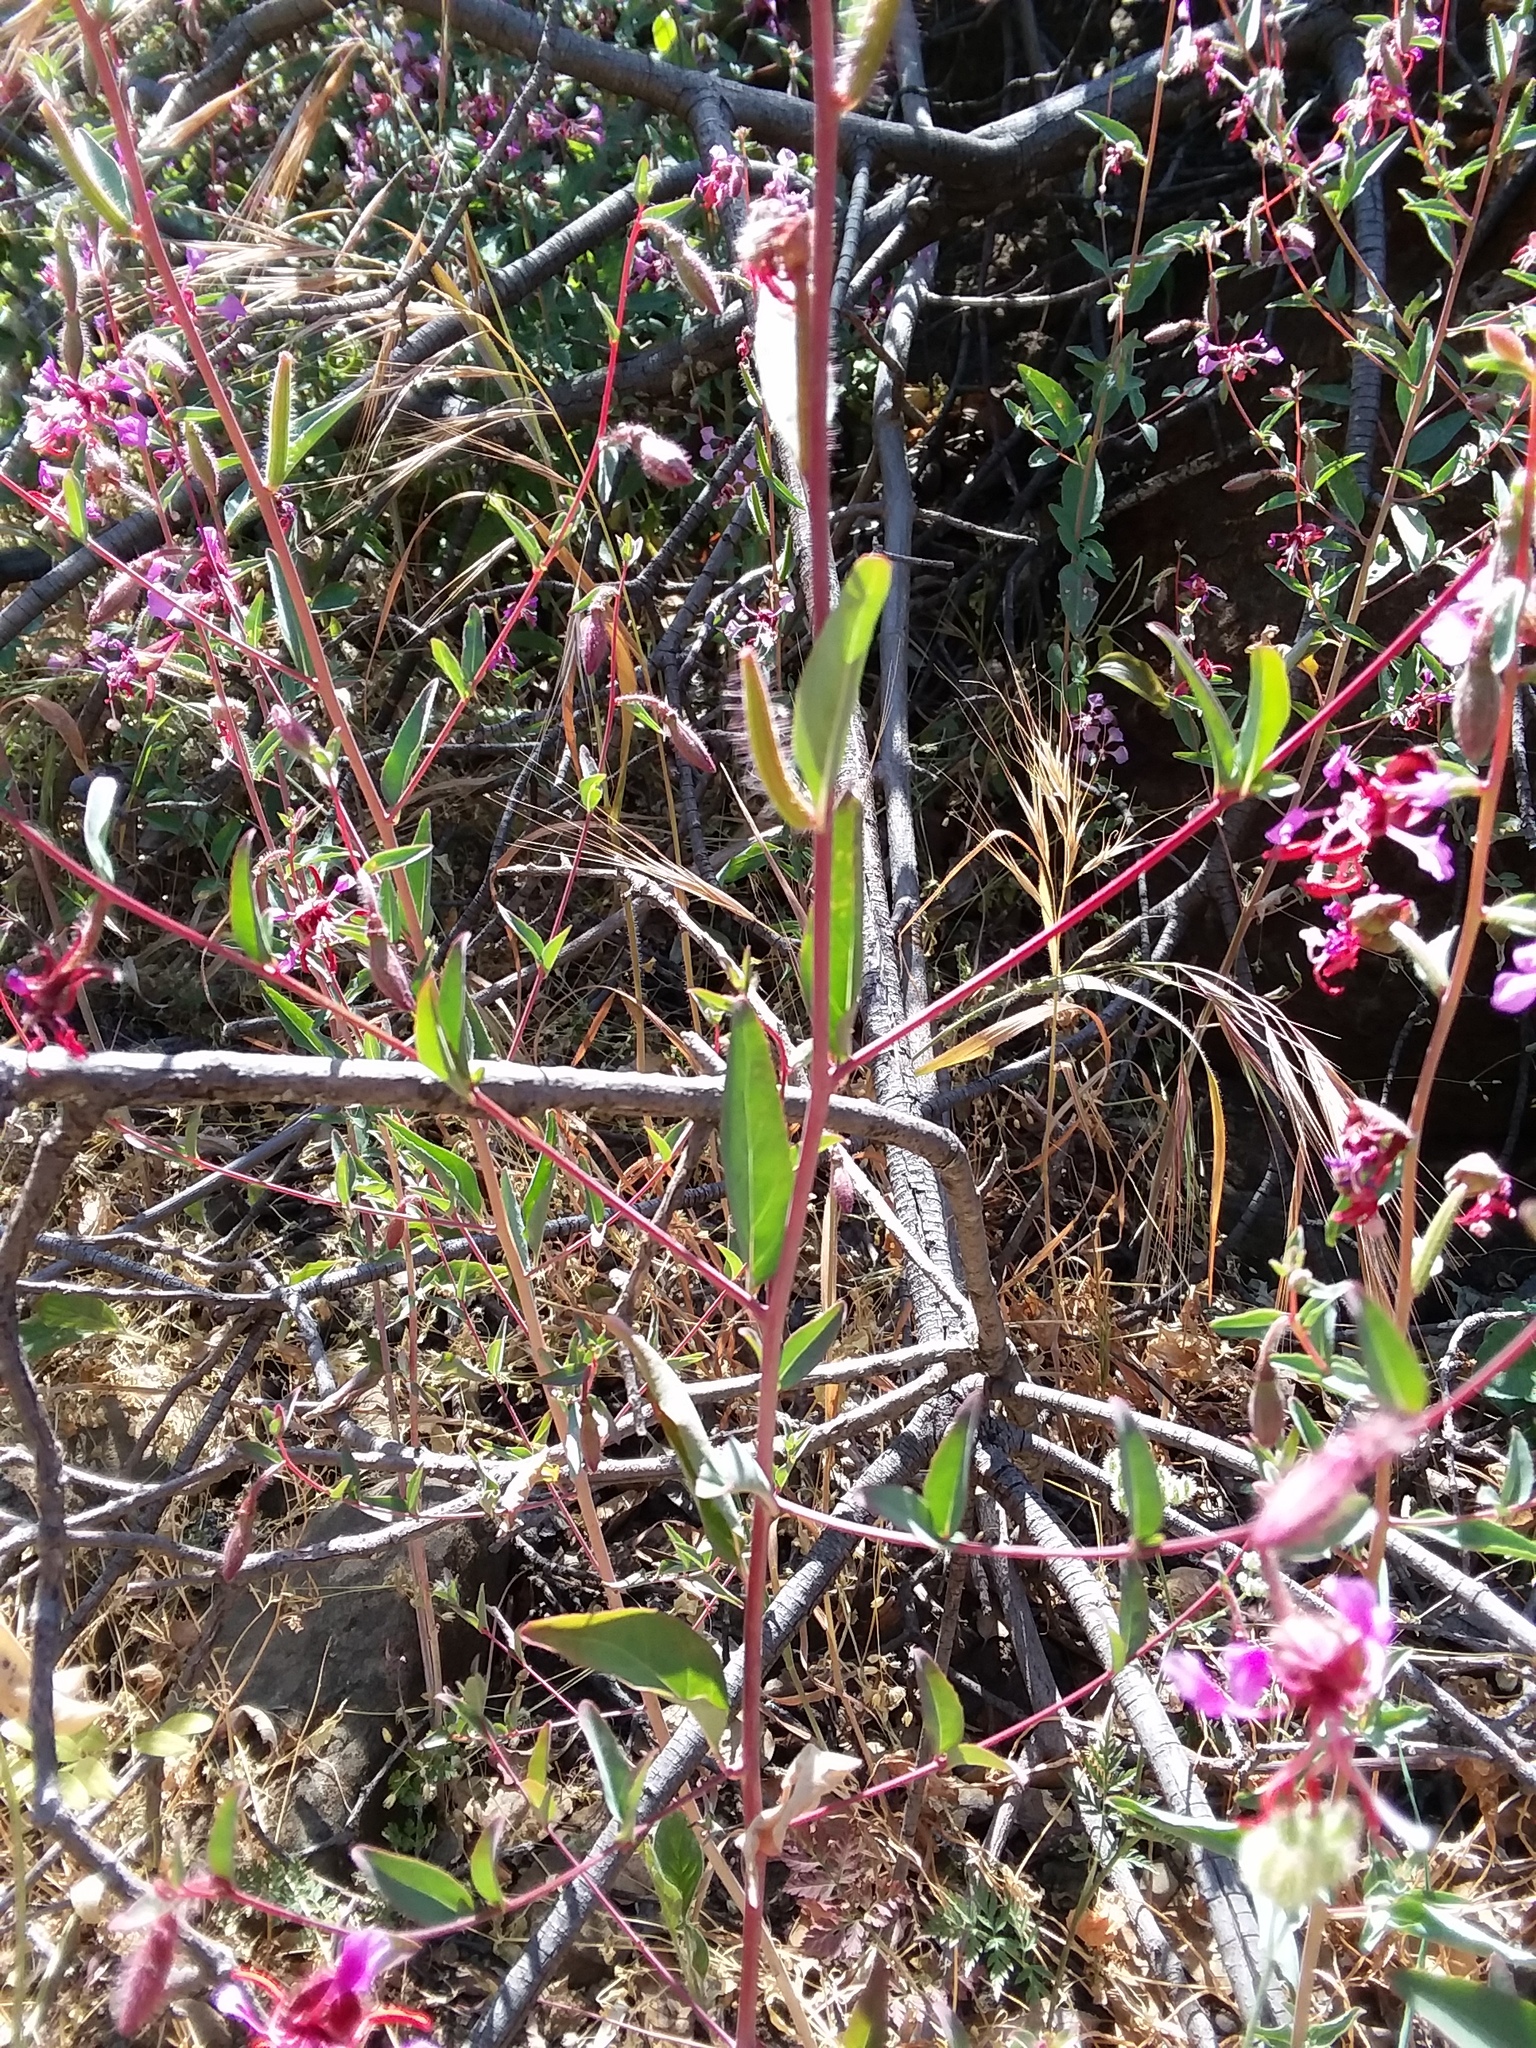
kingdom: Plantae
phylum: Tracheophyta
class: Magnoliopsida
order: Myrtales
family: Onagraceae
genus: Clarkia
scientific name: Clarkia unguiculata
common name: Clarkia
